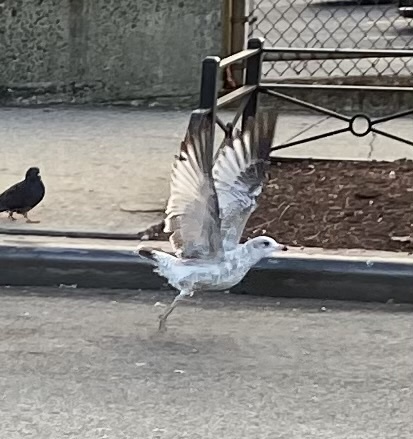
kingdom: Animalia
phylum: Chordata
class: Aves
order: Charadriiformes
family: Laridae
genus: Larus
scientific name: Larus delawarensis
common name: Ring-billed gull
